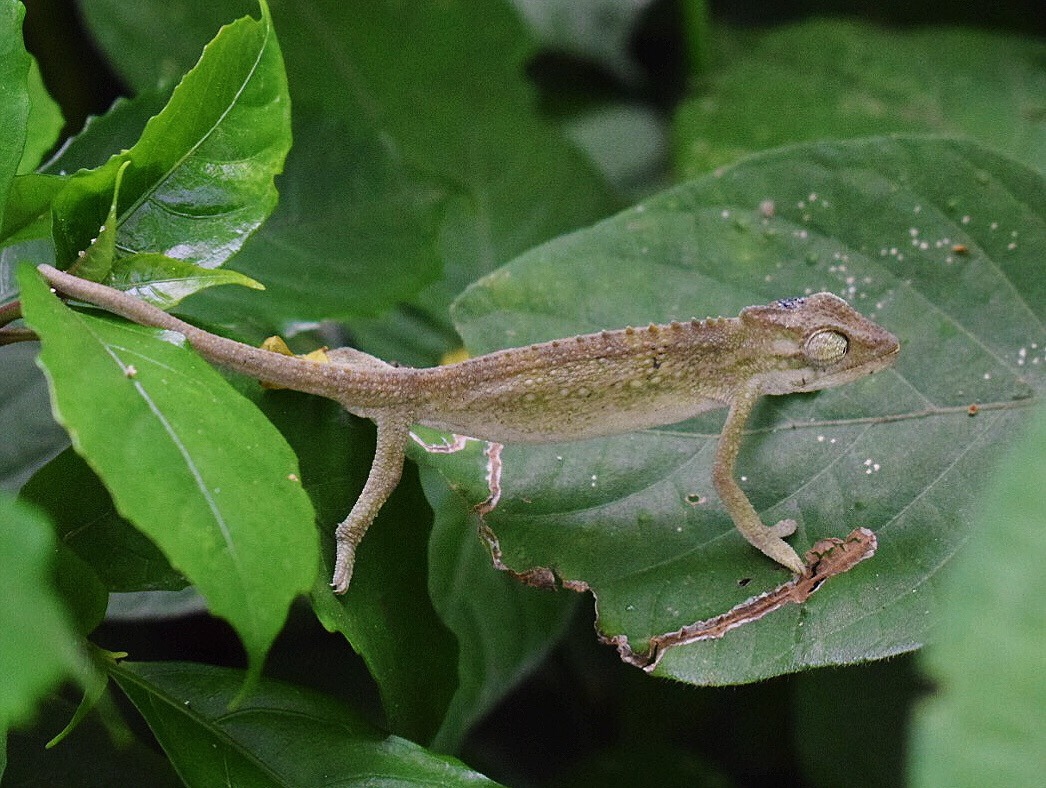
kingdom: Animalia
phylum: Chordata
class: Squamata
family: Chamaeleonidae
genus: Bradypodion
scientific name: Bradypodion melanocephalum
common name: Black-headed dwarf chameleon
